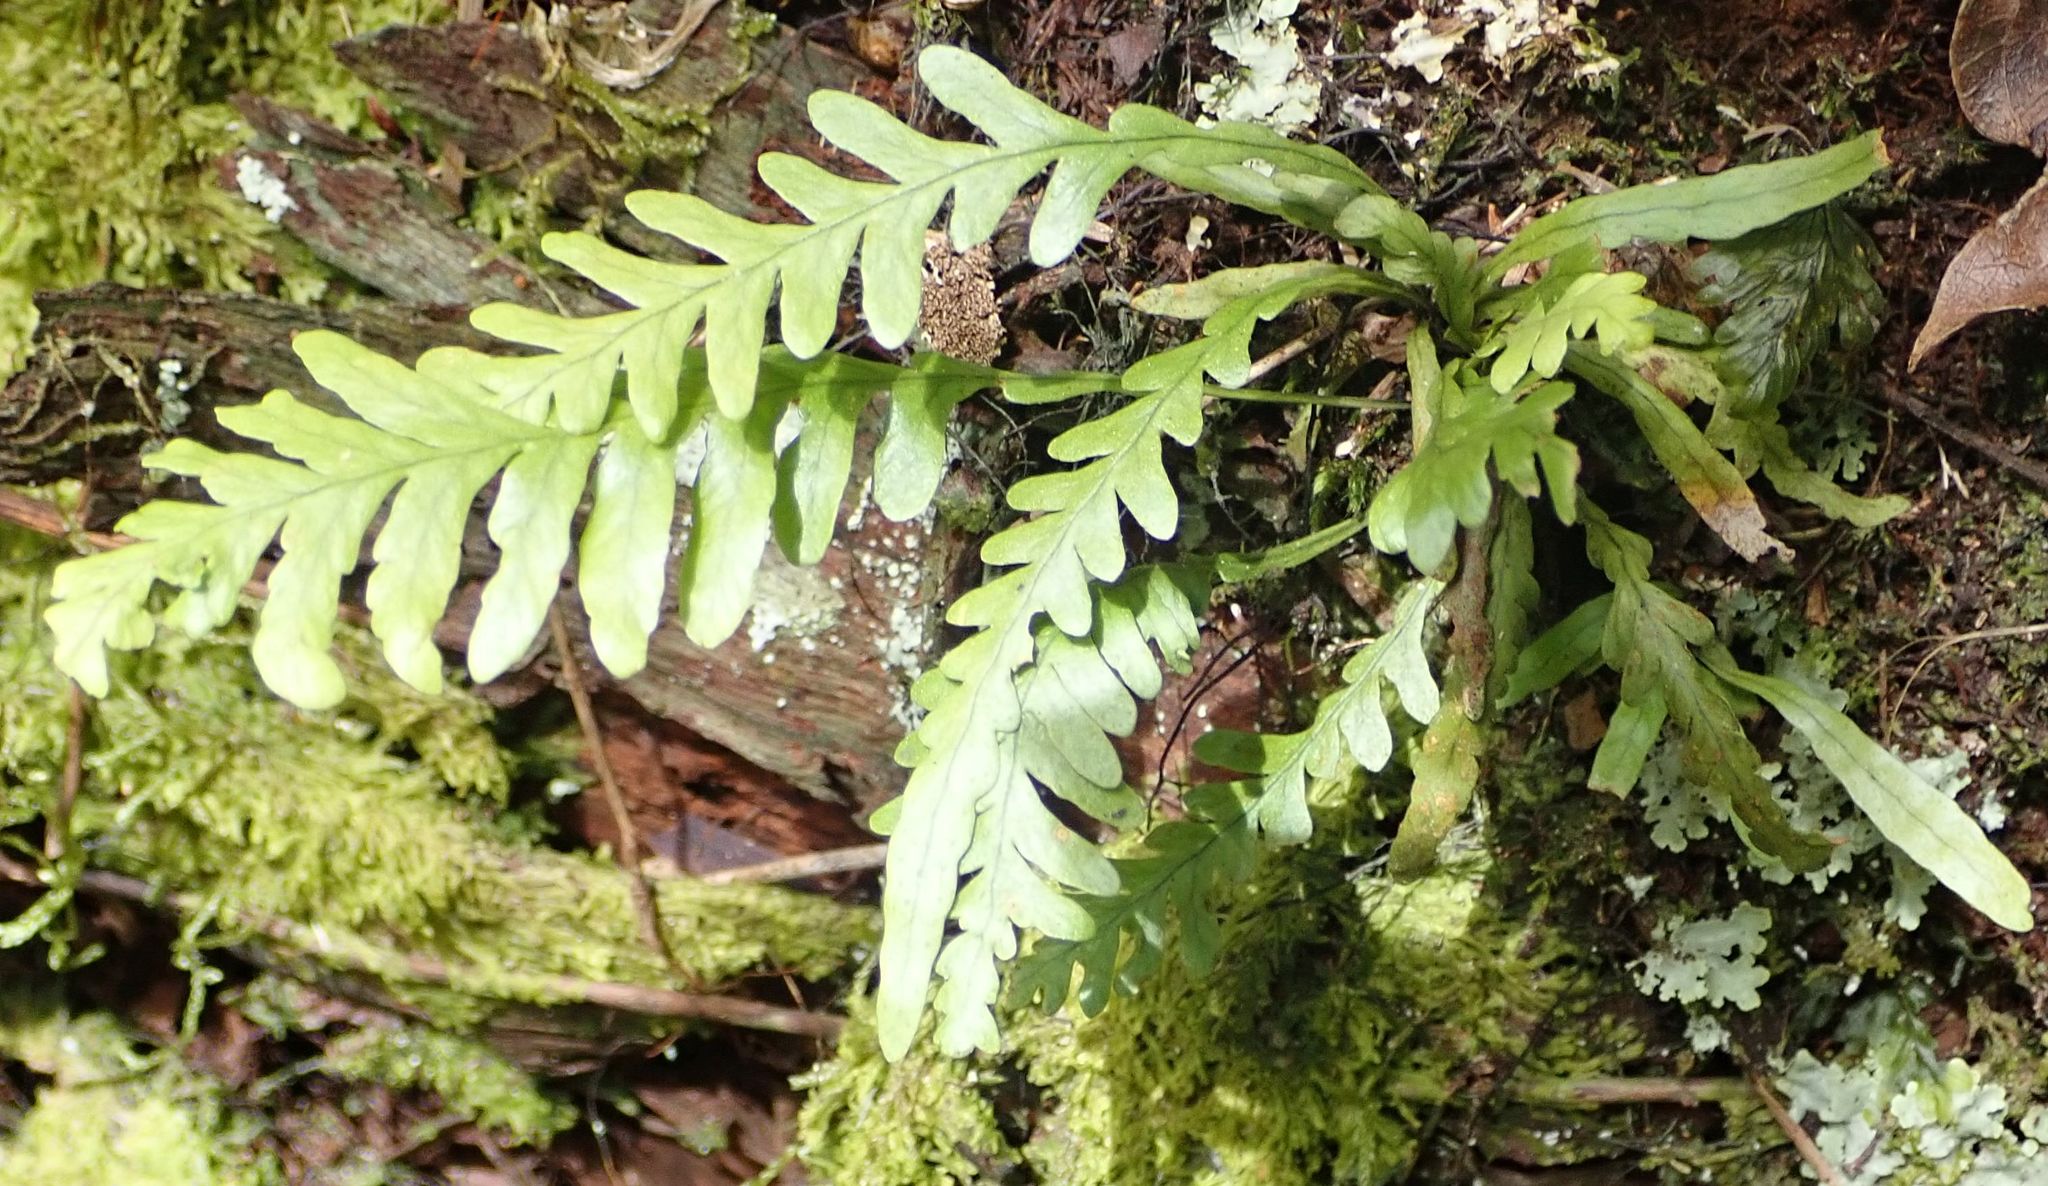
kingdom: Plantae
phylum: Tracheophyta
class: Polypodiopsida
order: Polypodiales
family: Polypodiaceae
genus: Notogrammitis
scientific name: Notogrammitis heterophylla
